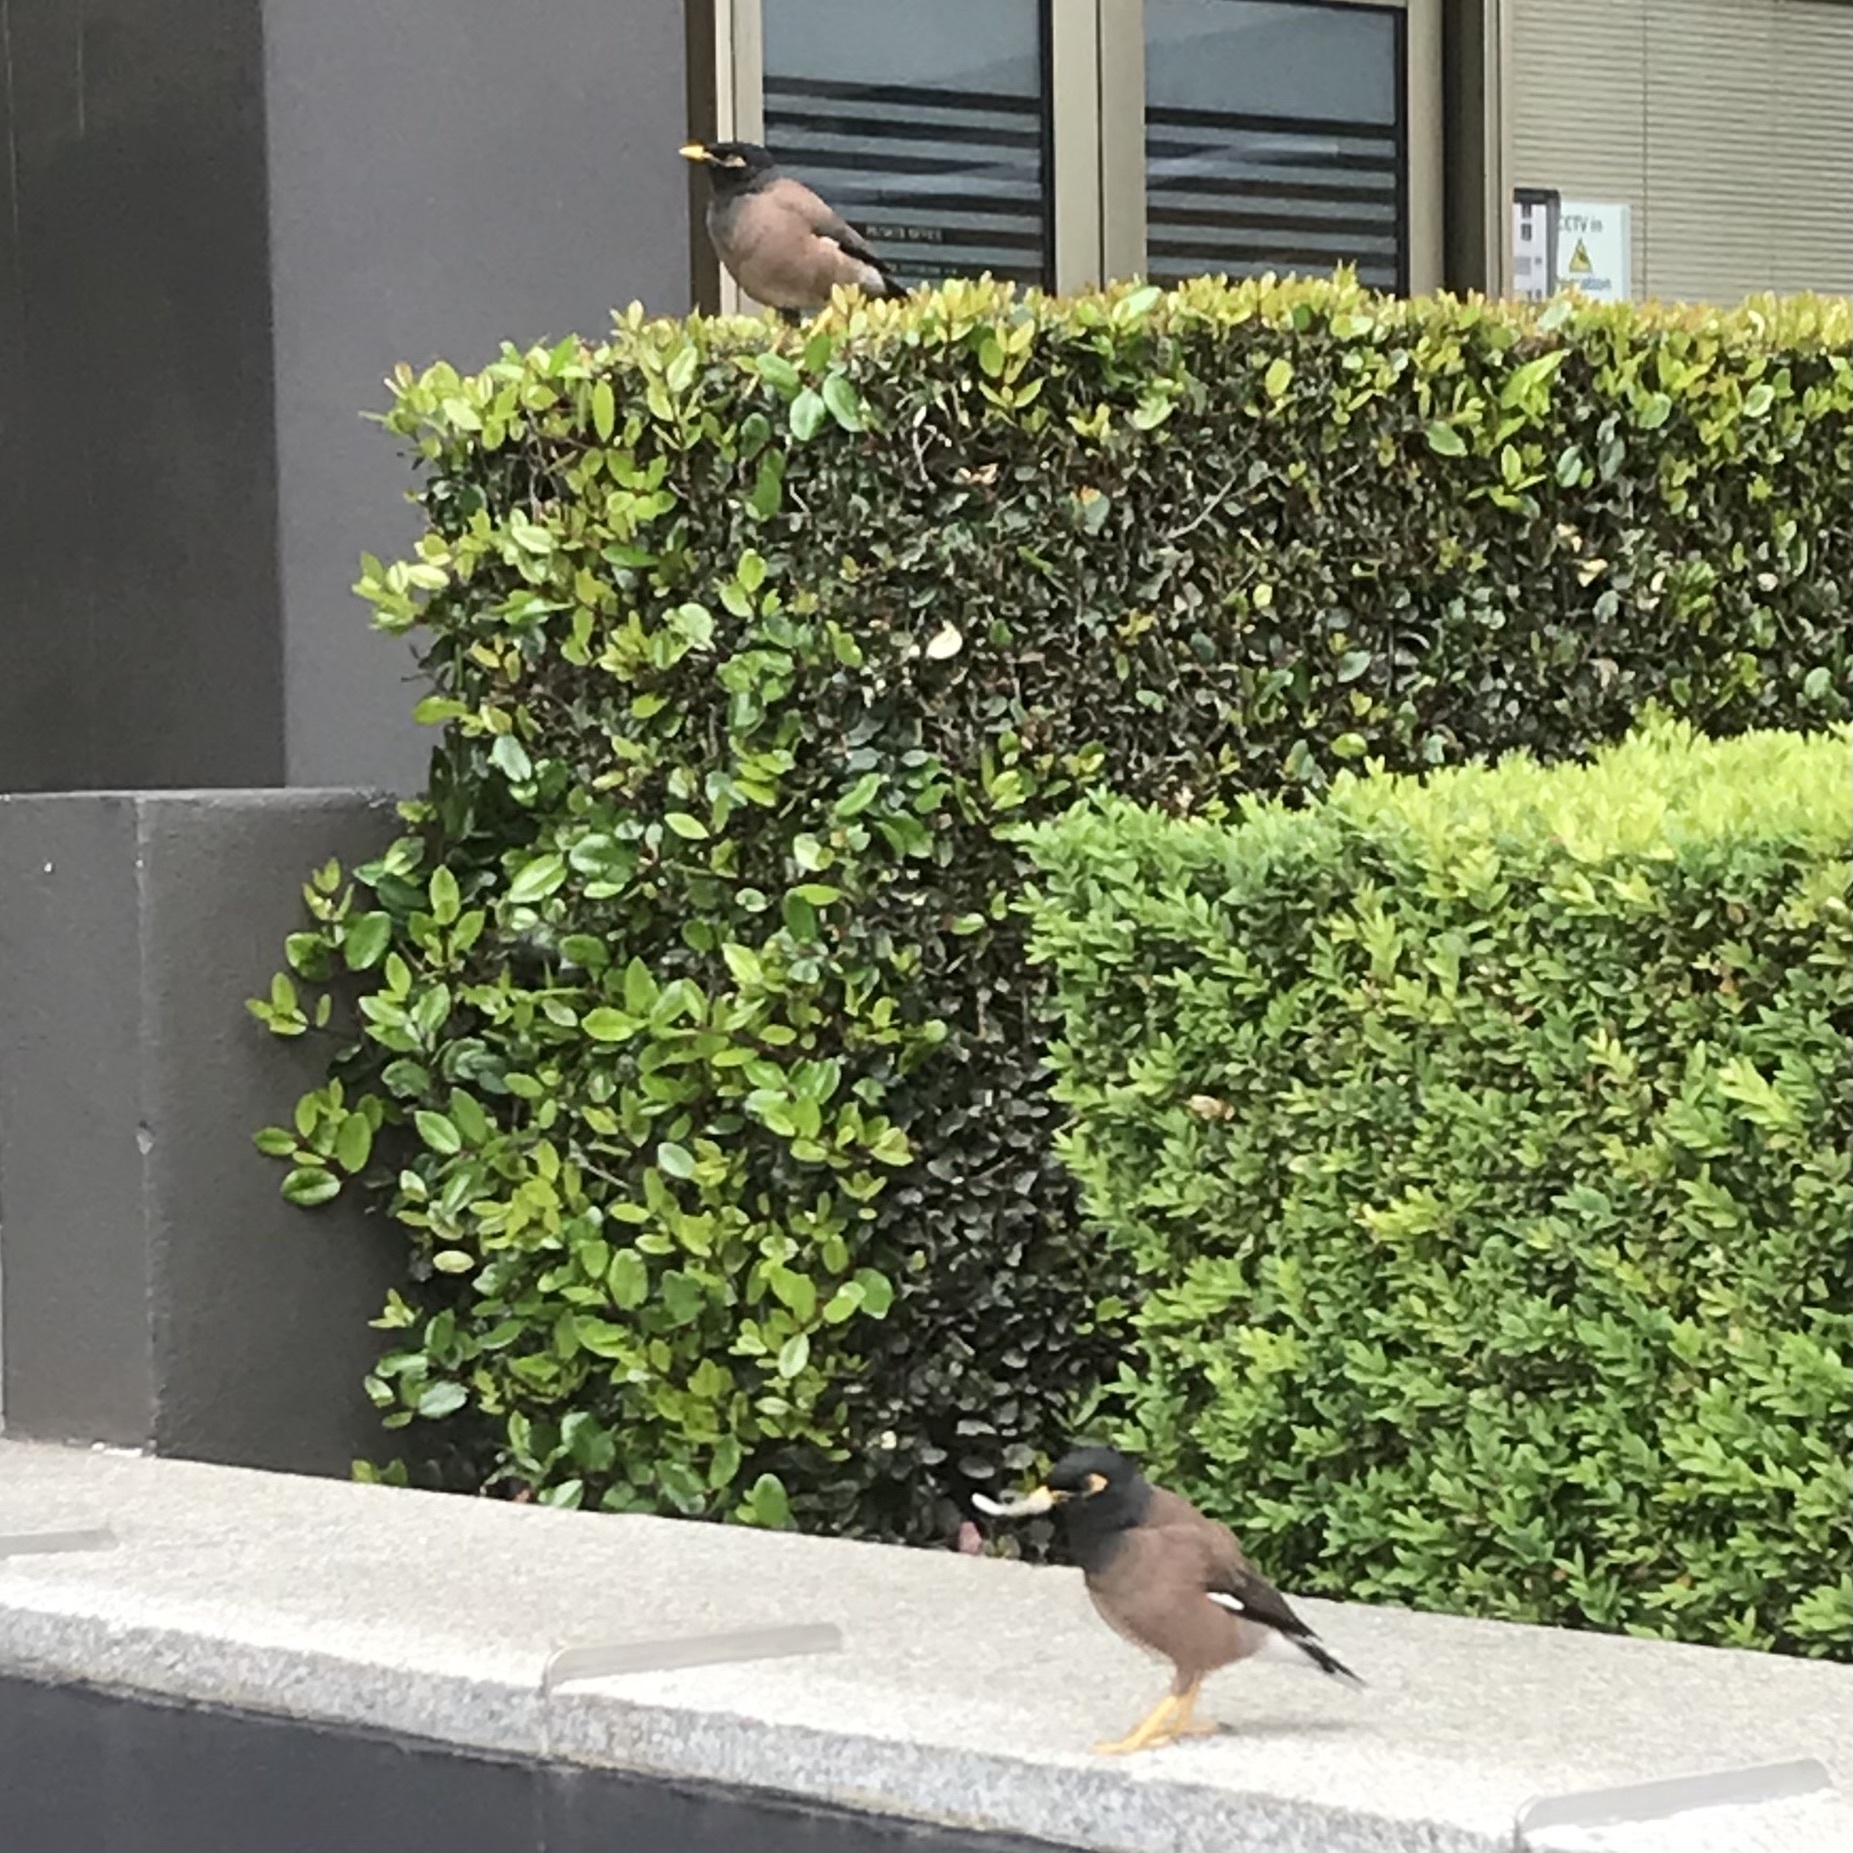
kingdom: Animalia
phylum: Chordata
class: Aves
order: Passeriformes
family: Sturnidae
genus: Acridotheres
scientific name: Acridotheres tristis
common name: Common myna
